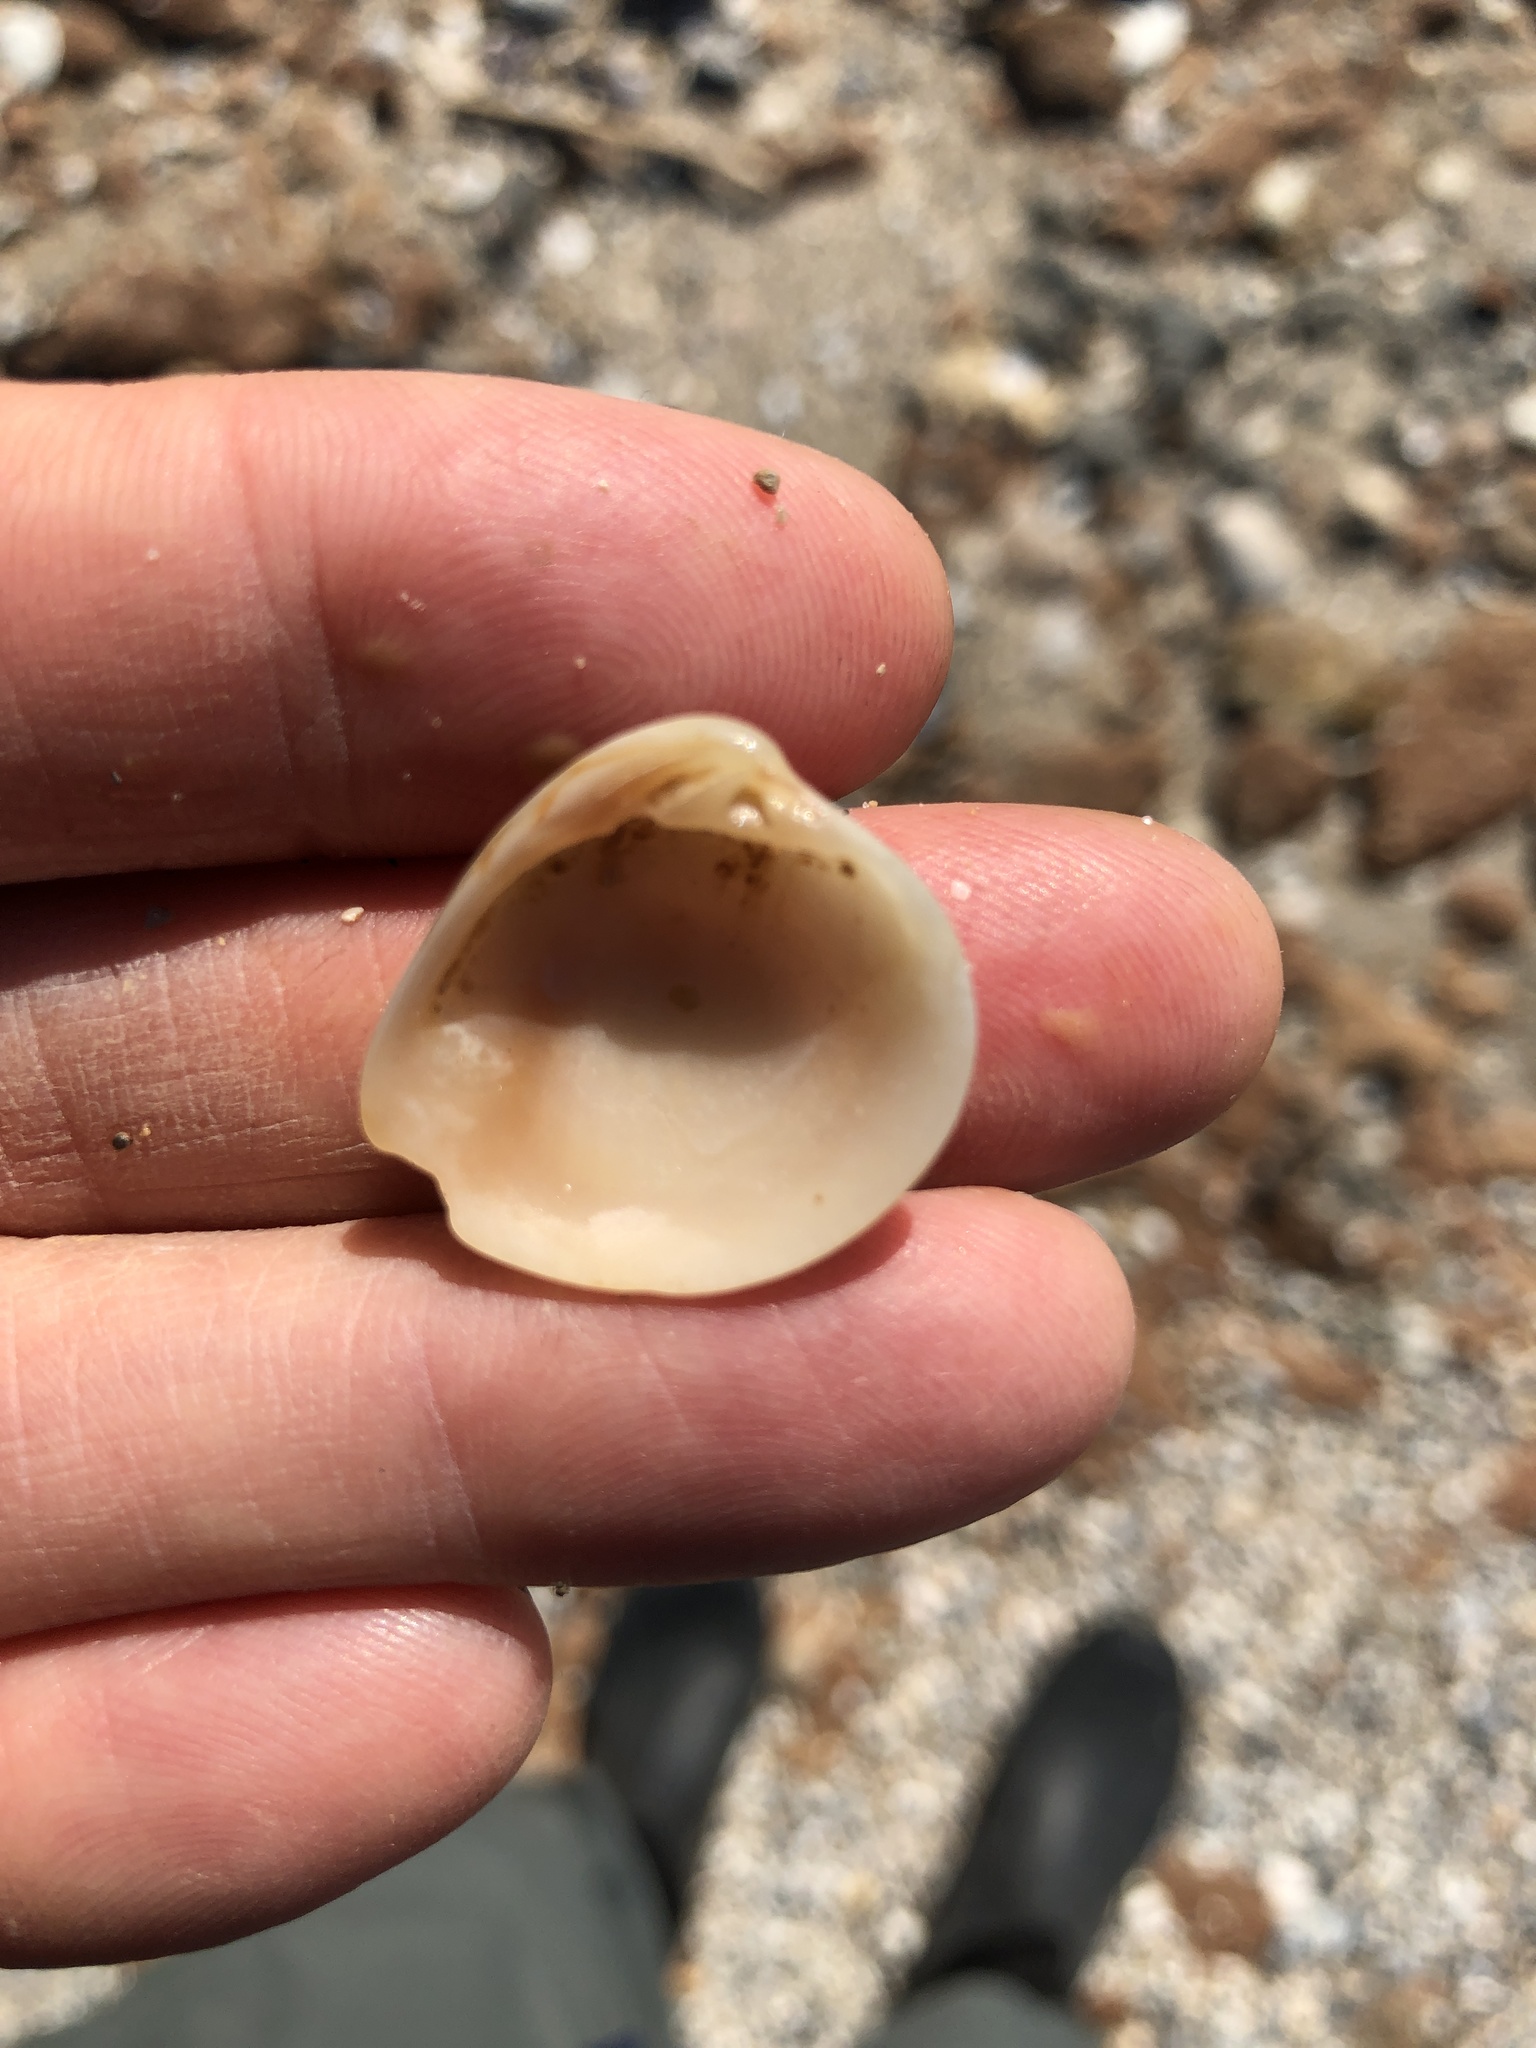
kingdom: Animalia
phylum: Mollusca
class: Bivalvia
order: Venerida
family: Veneridae
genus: Chione
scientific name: Chione elevata
